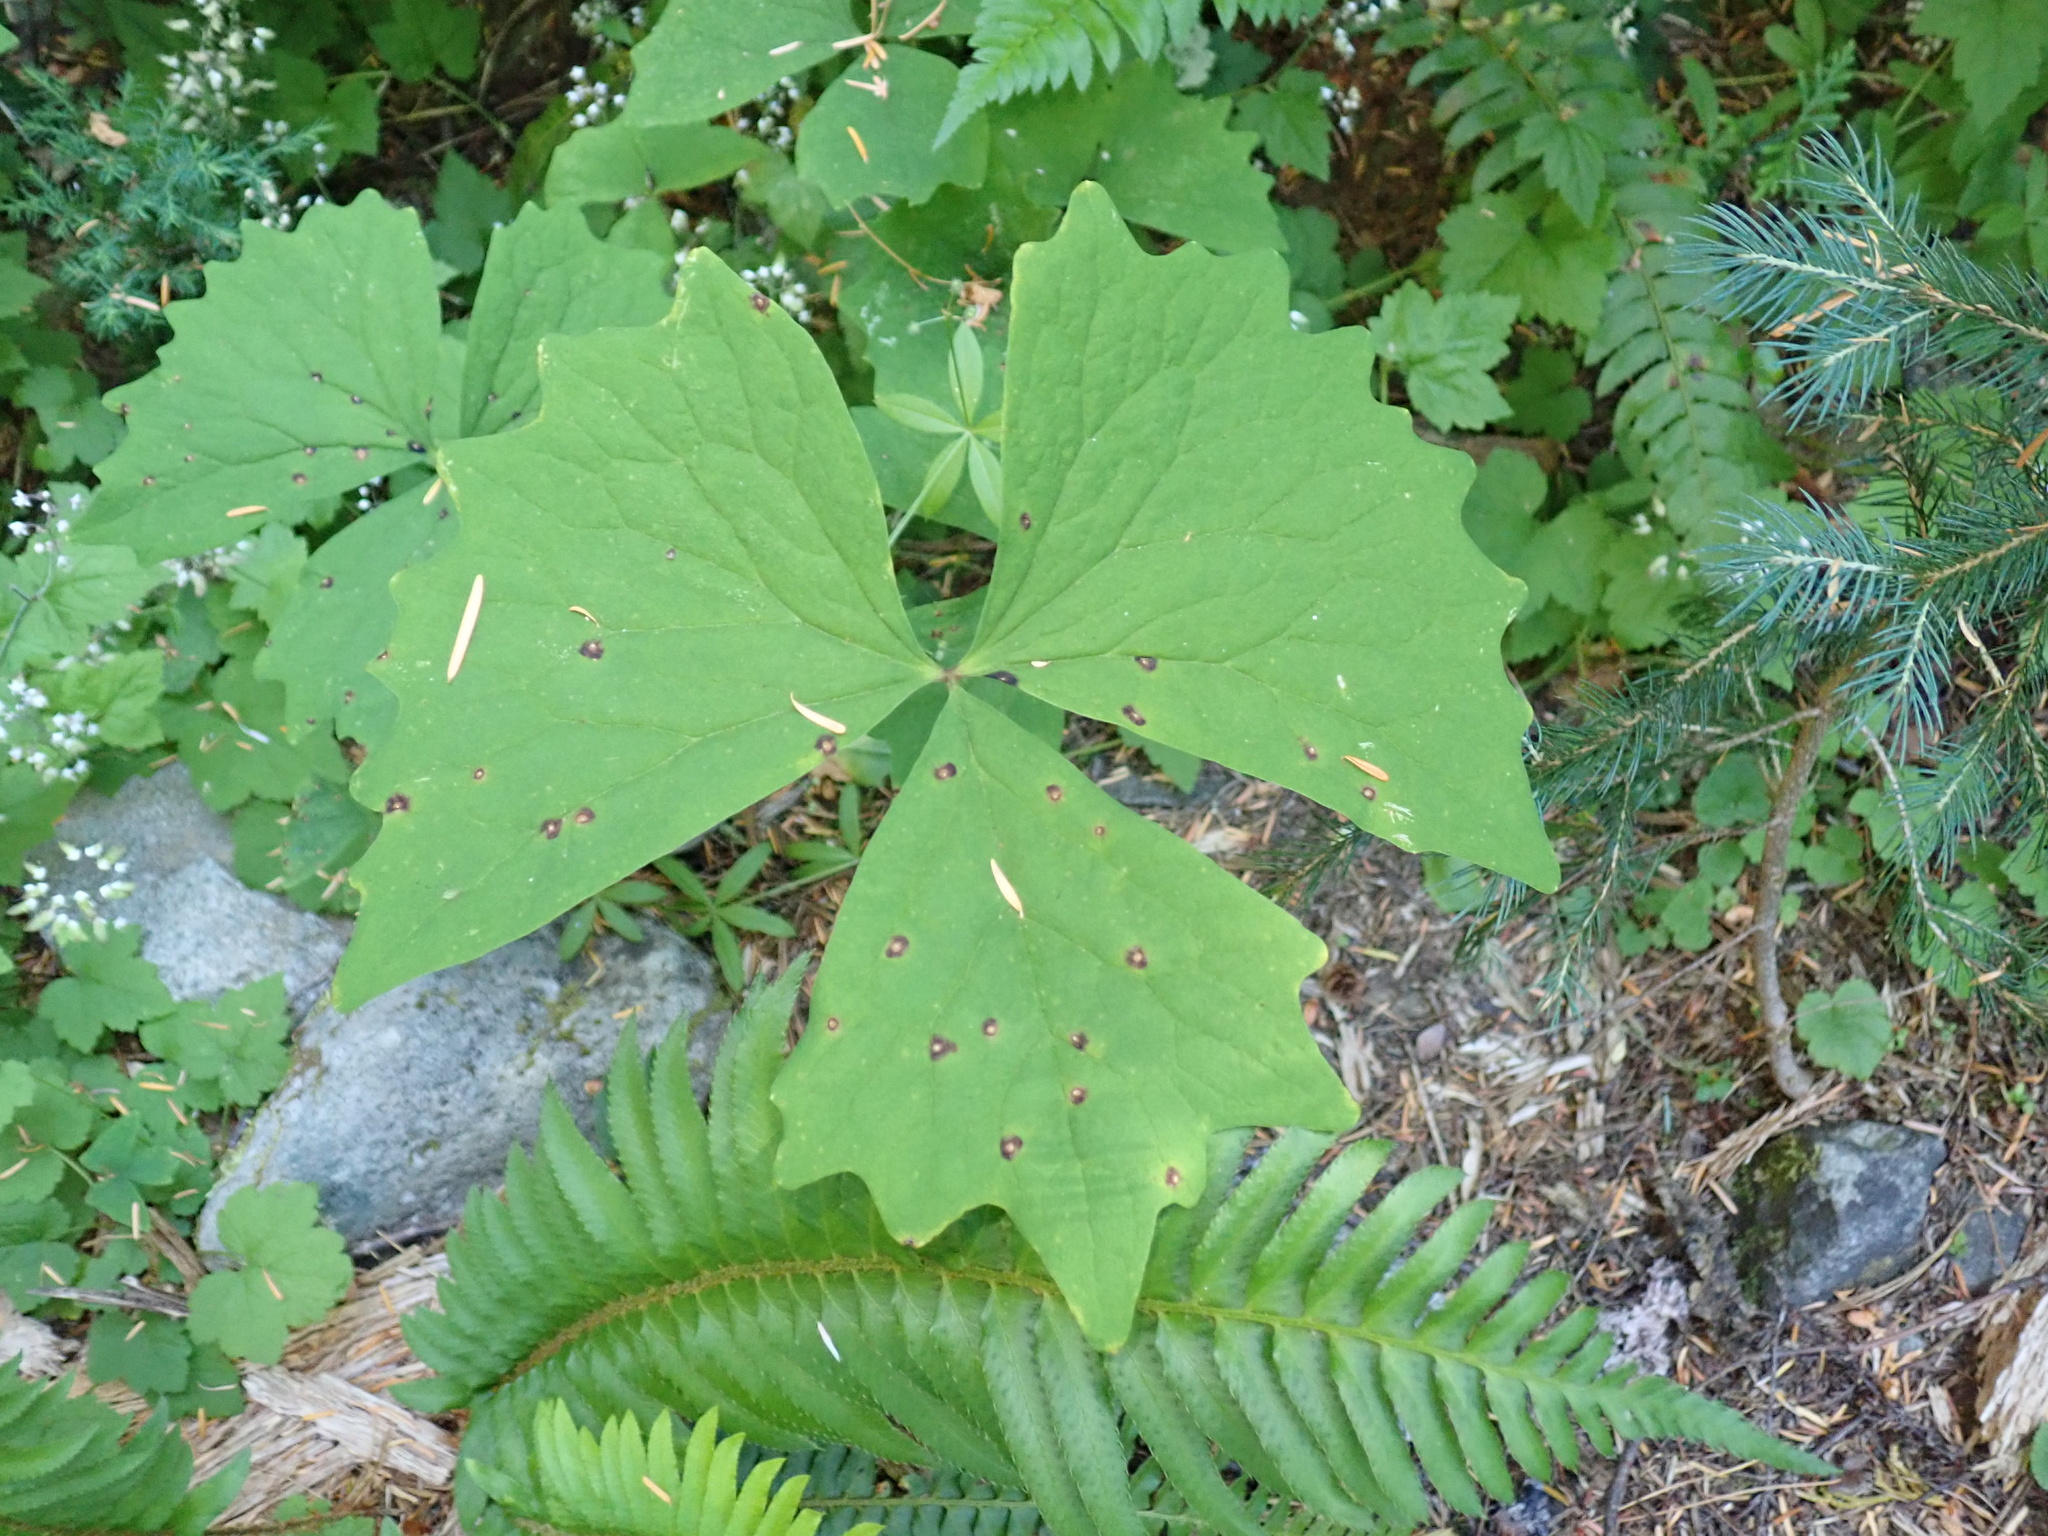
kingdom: Plantae
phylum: Tracheophyta
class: Magnoliopsida
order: Ranunculales
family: Berberidaceae
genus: Achlys
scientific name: Achlys triphylla
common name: Vanilla-leaf
